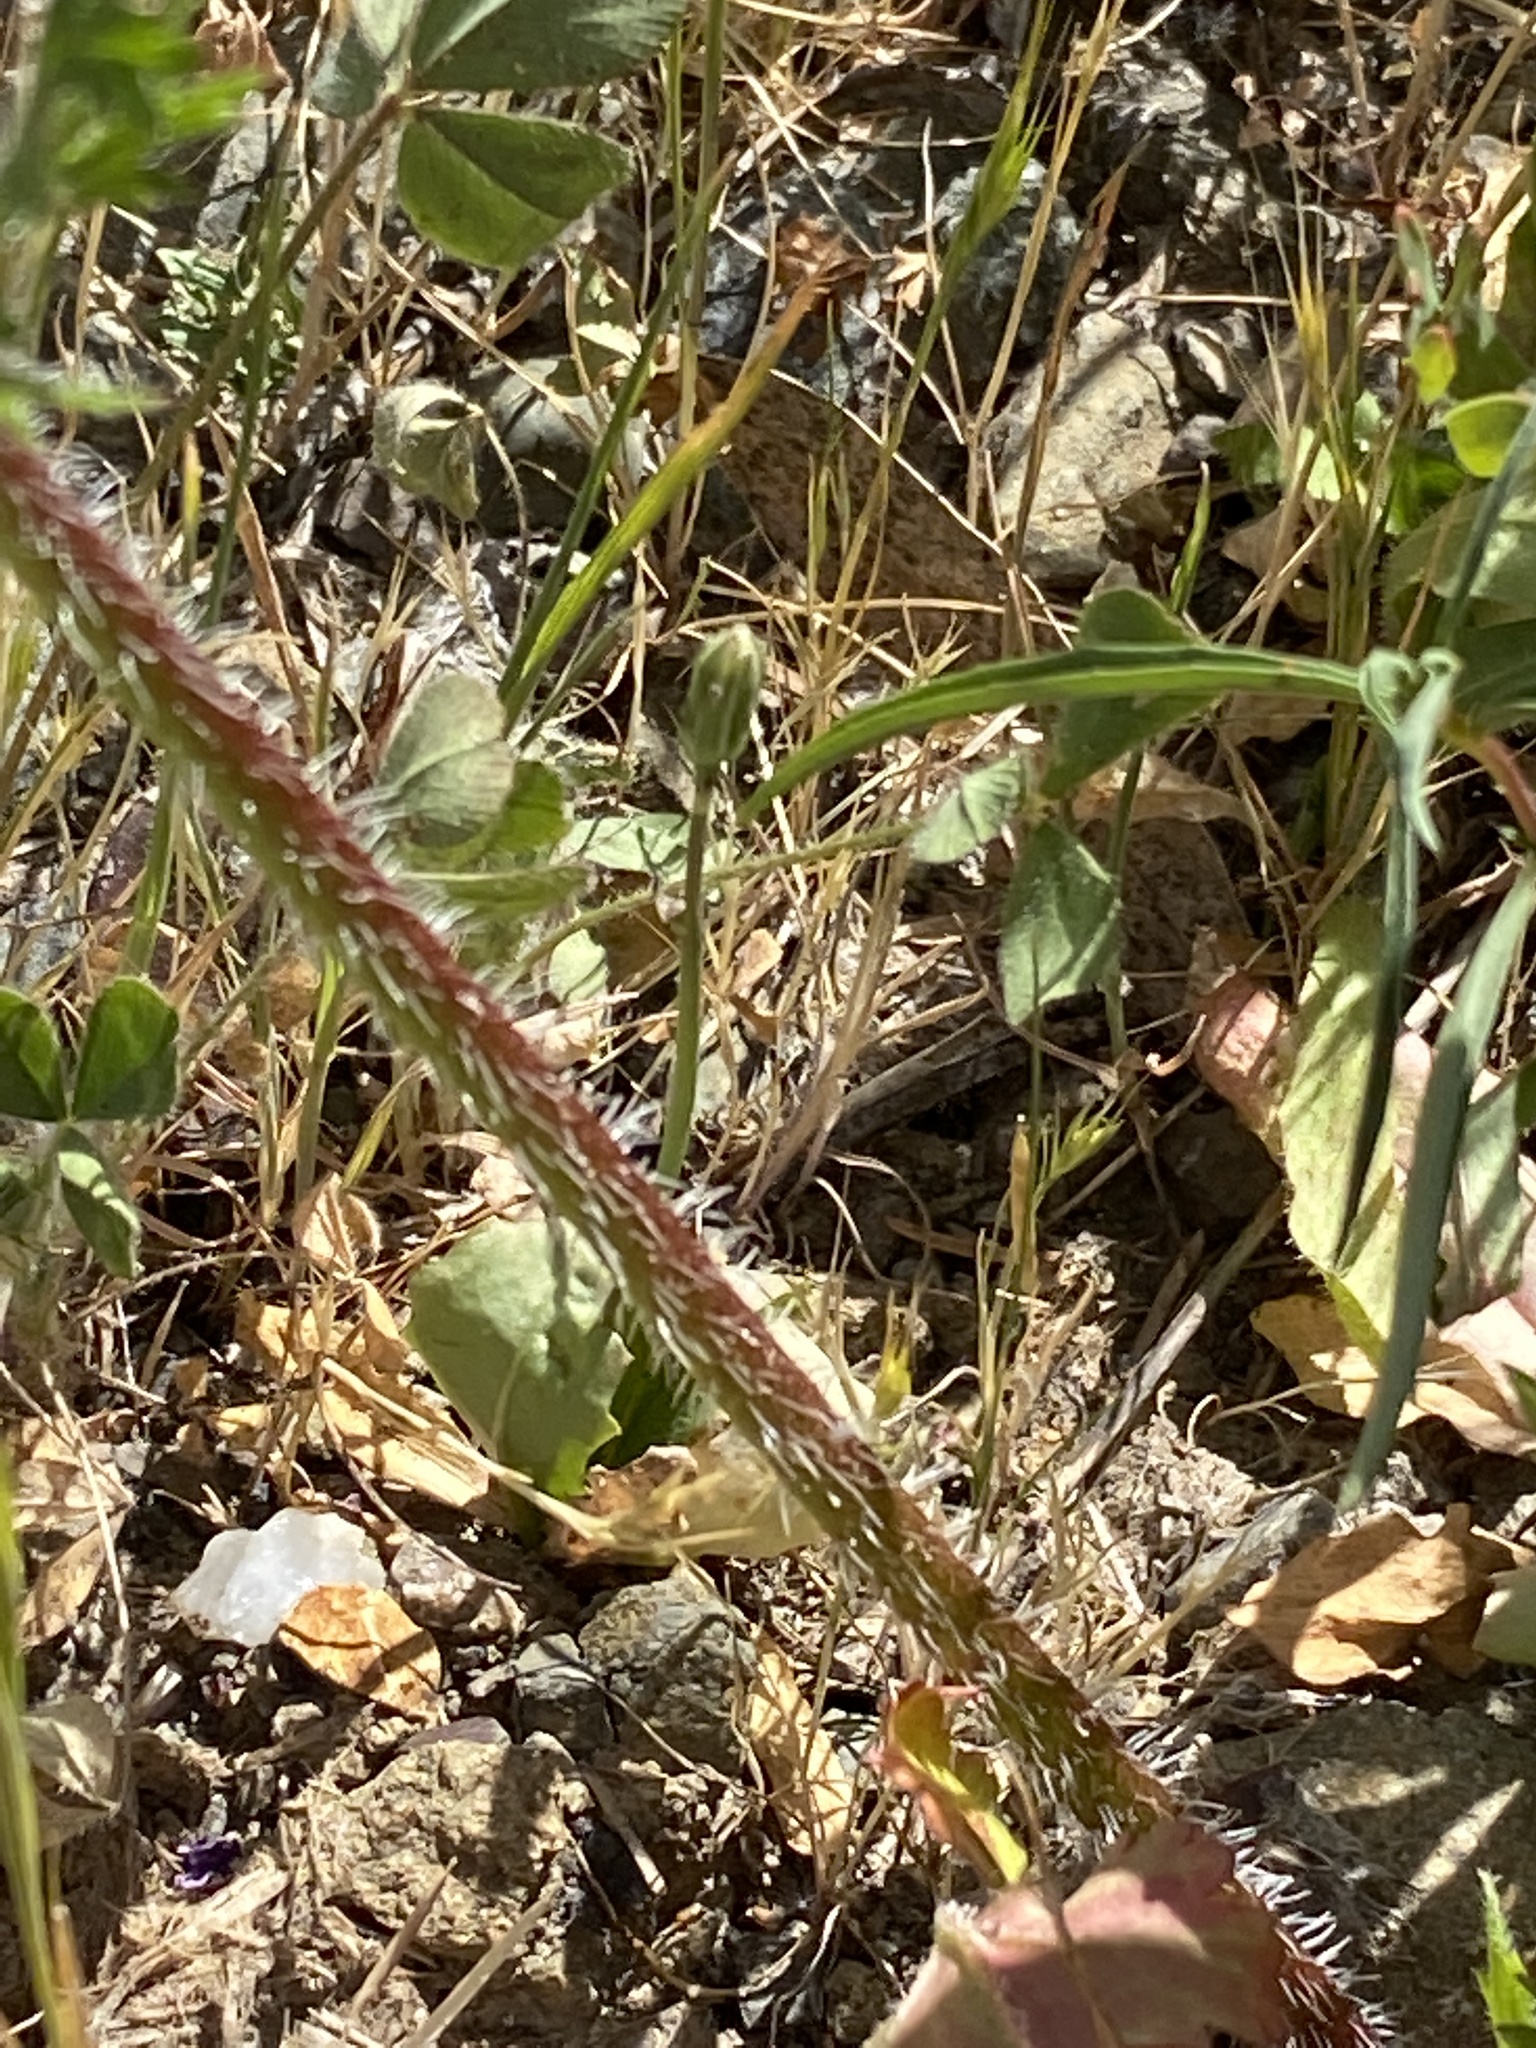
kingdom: Plantae
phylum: Tracheophyta
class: Magnoliopsida
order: Geraniales
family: Geraniaceae
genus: Erodium
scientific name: Erodium botrys
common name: Mediterranean stork's-bill
